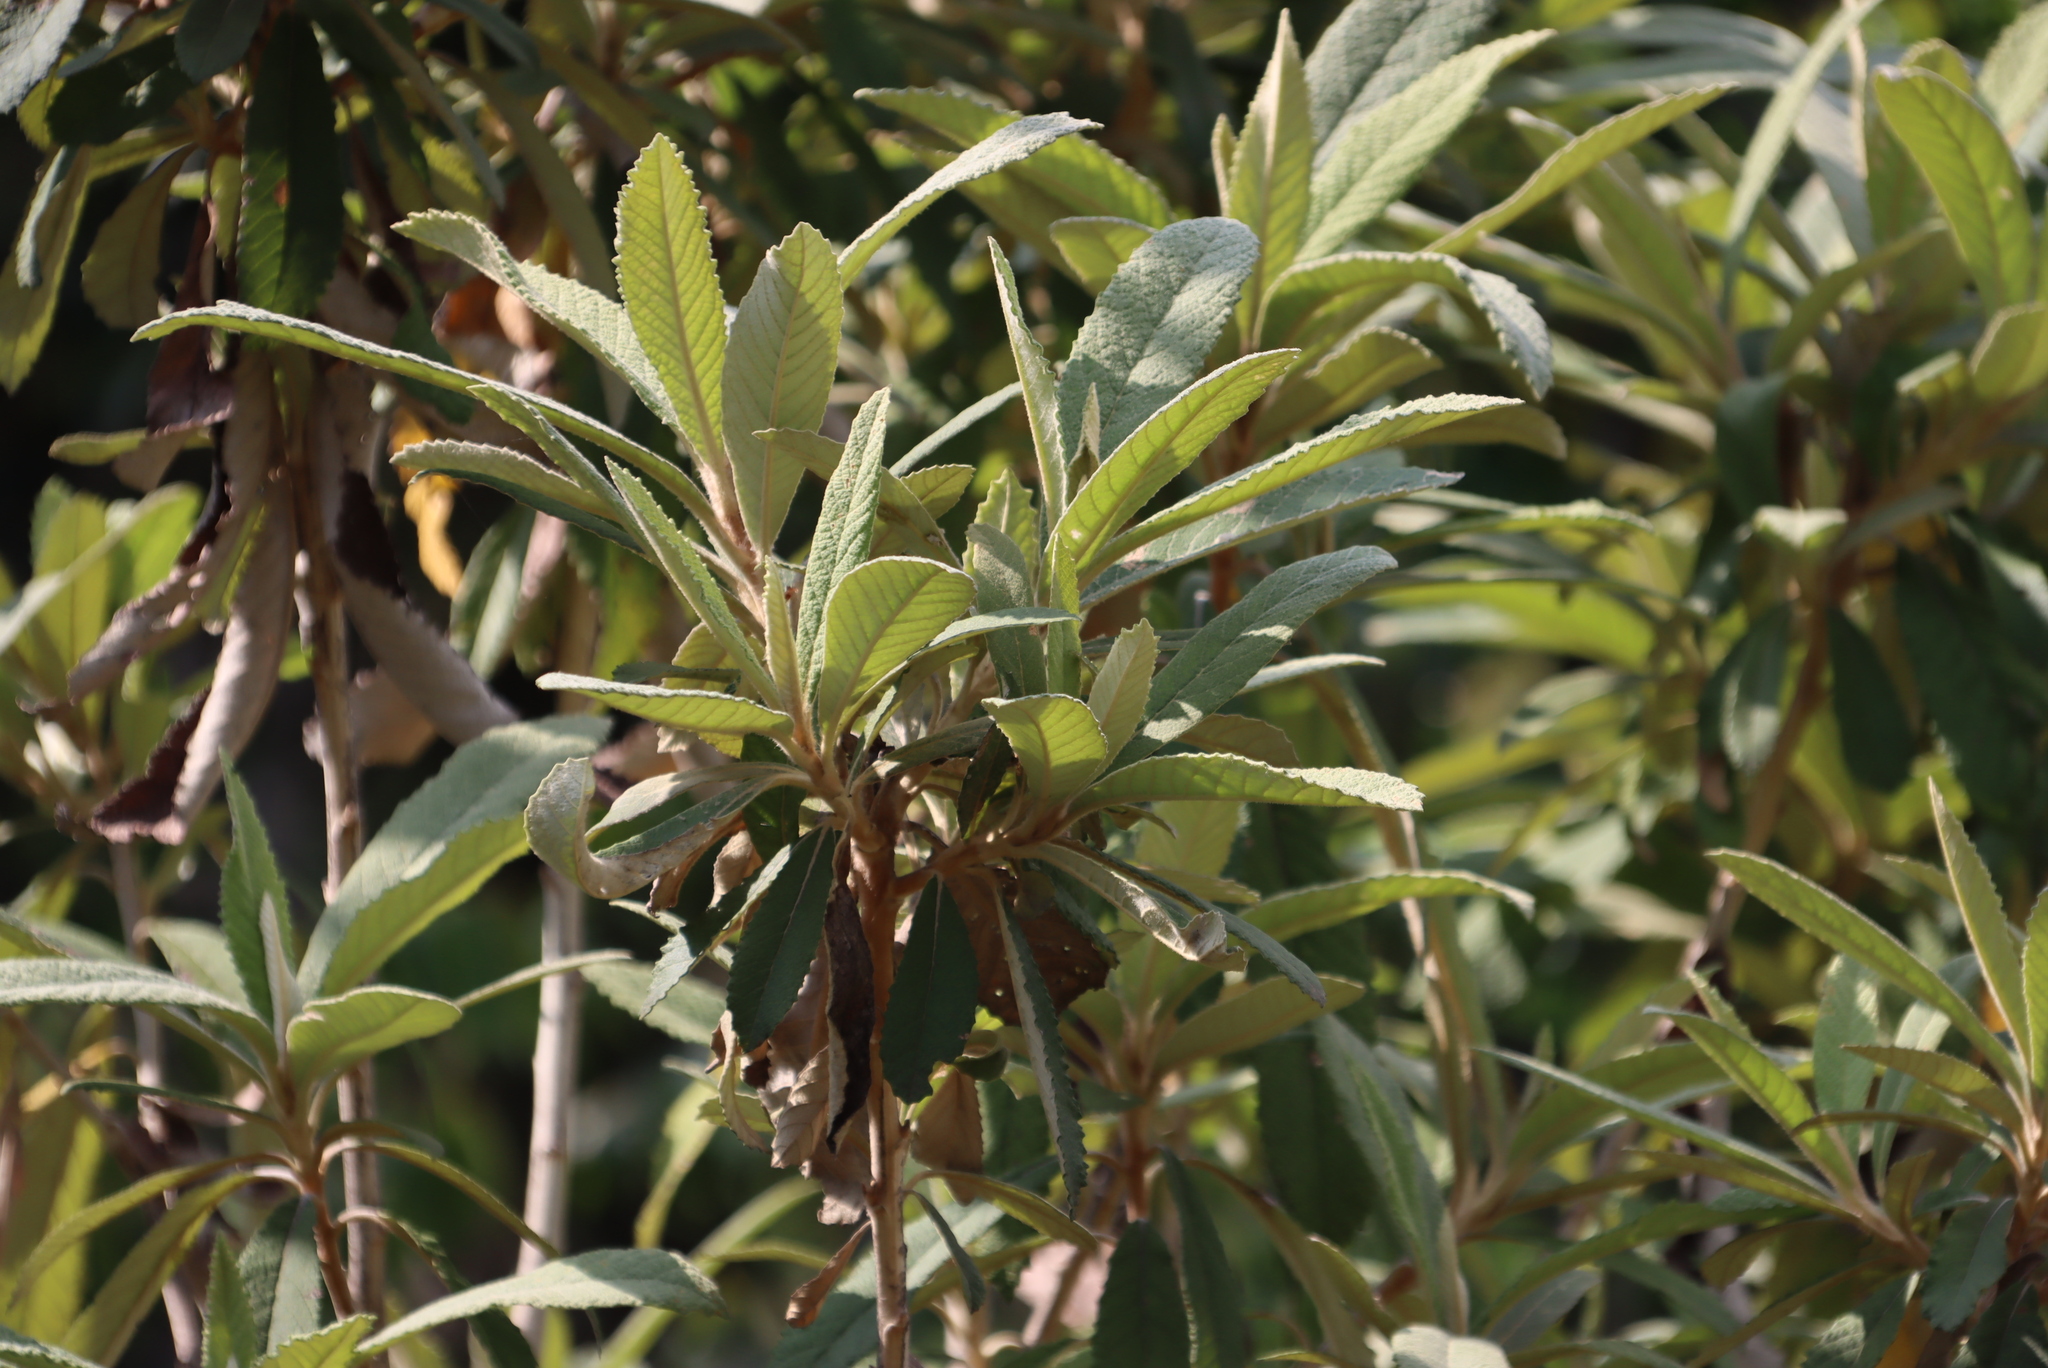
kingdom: Plantae
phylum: Tracheophyta
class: Magnoliopsida
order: Asterales
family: Asteraceae
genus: Tarchonanthus
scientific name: Tarchonanthus trilobus
